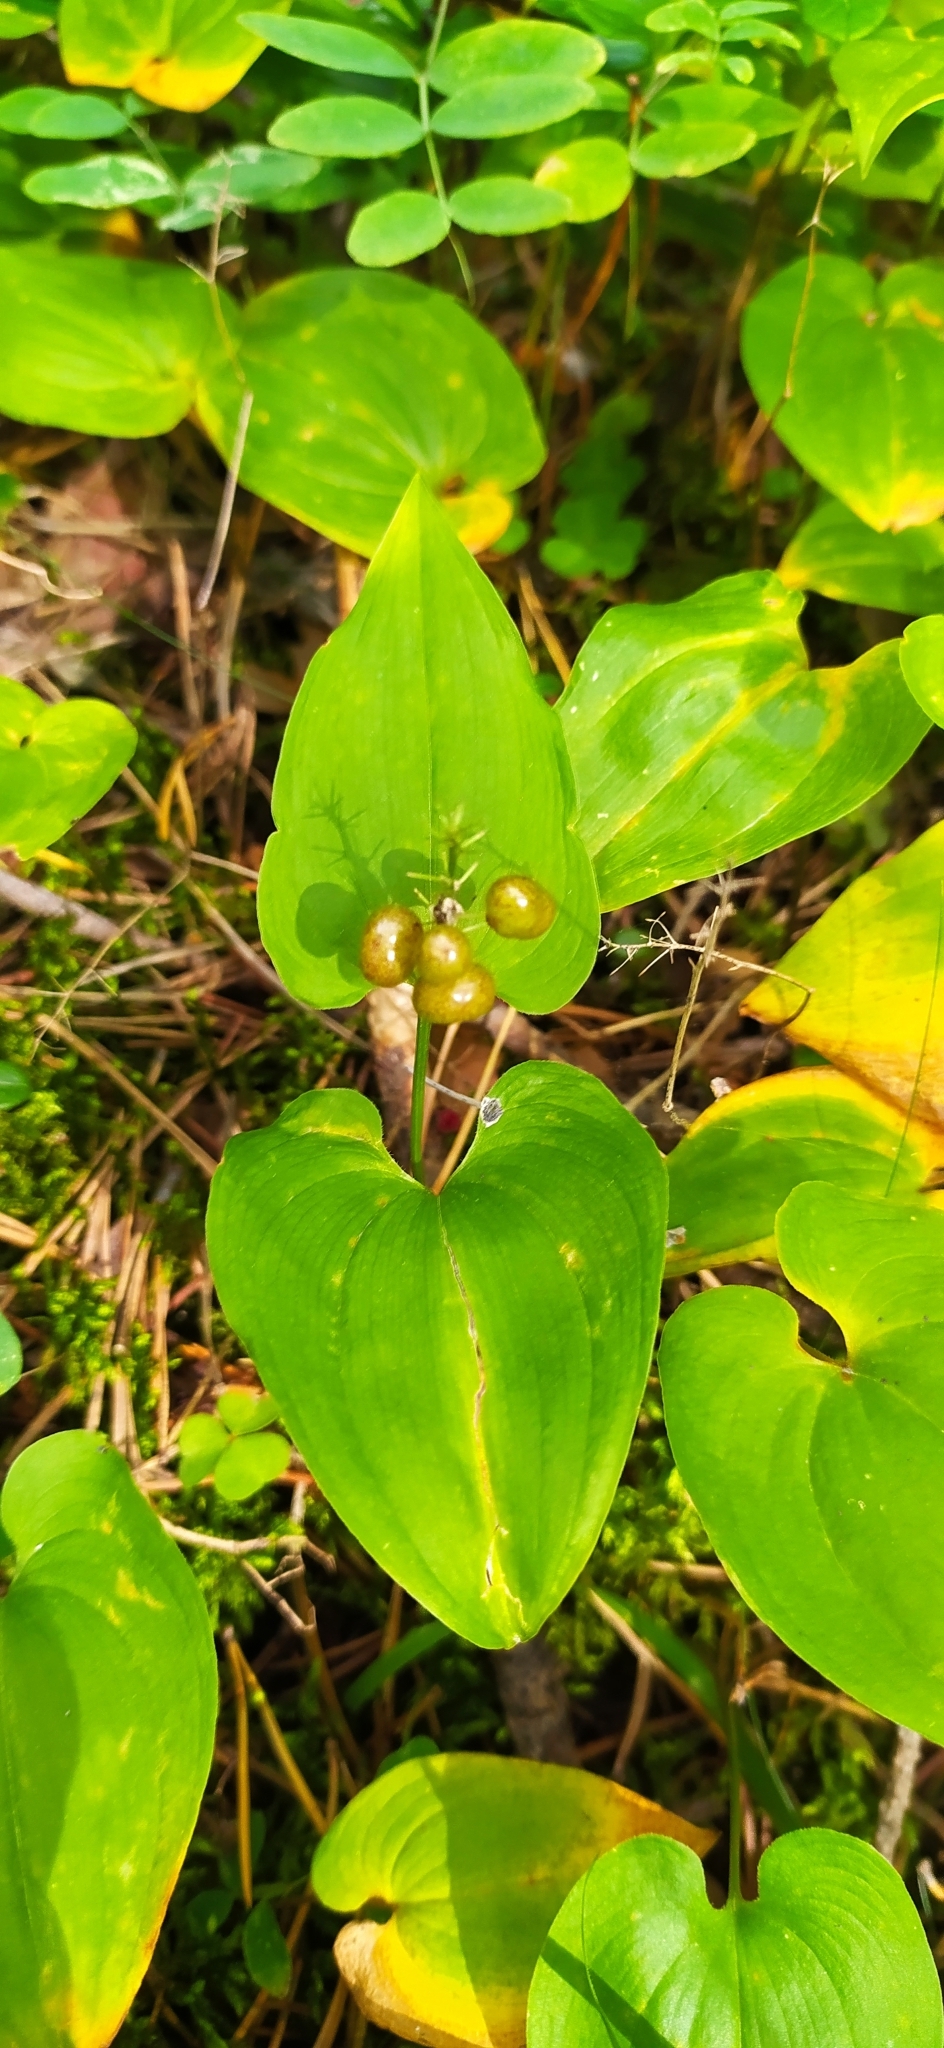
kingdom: Plantae
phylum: Tracheophyta
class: Liliopsida
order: Asparagales
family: Asparagaceae
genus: Maianthemum
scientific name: Maianthemum bifolium
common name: May lily
